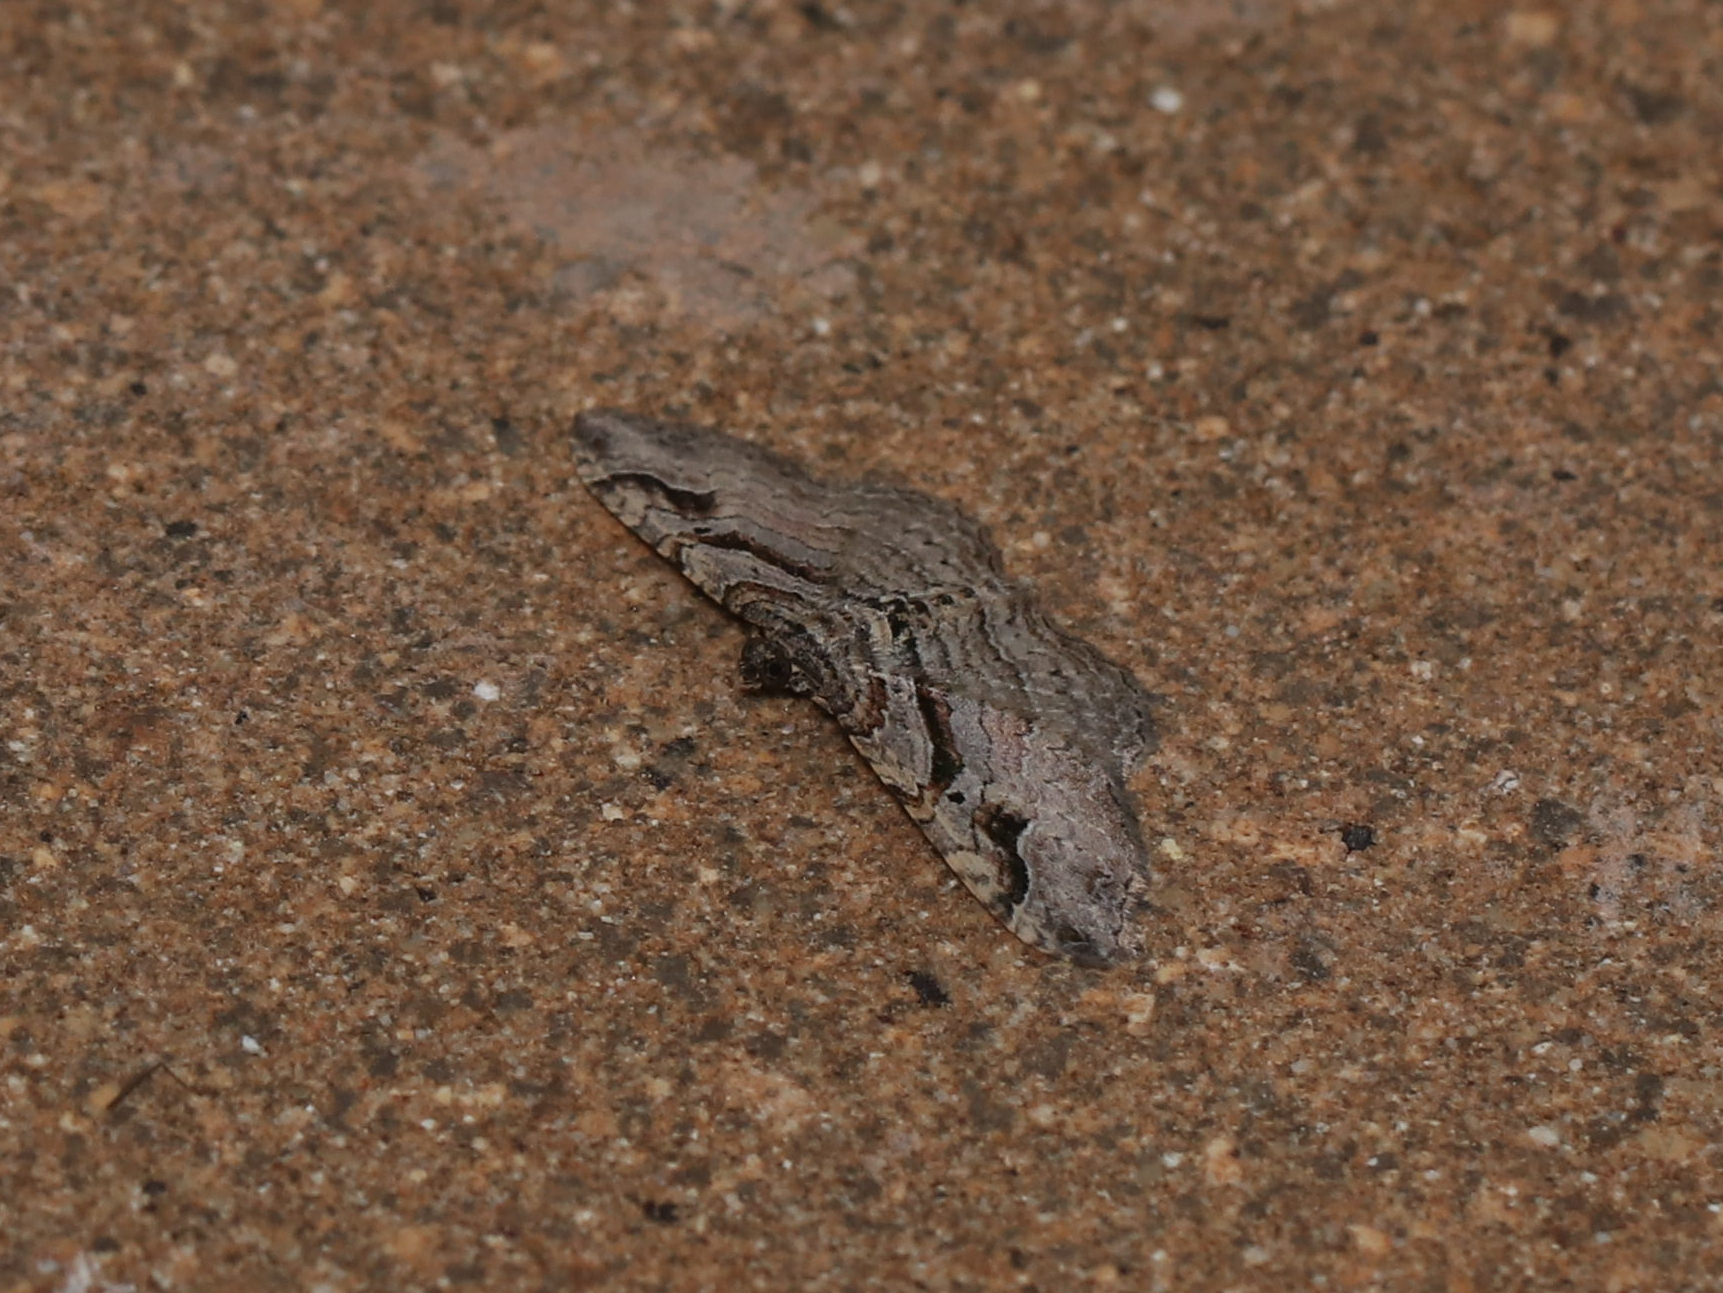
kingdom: Animalia
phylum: Arthropoda
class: Insecta
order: Lepidoptera
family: Geometridae
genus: Costaconvexa
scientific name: Costaconvexa centrostrigaria
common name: Bent-line carpet
